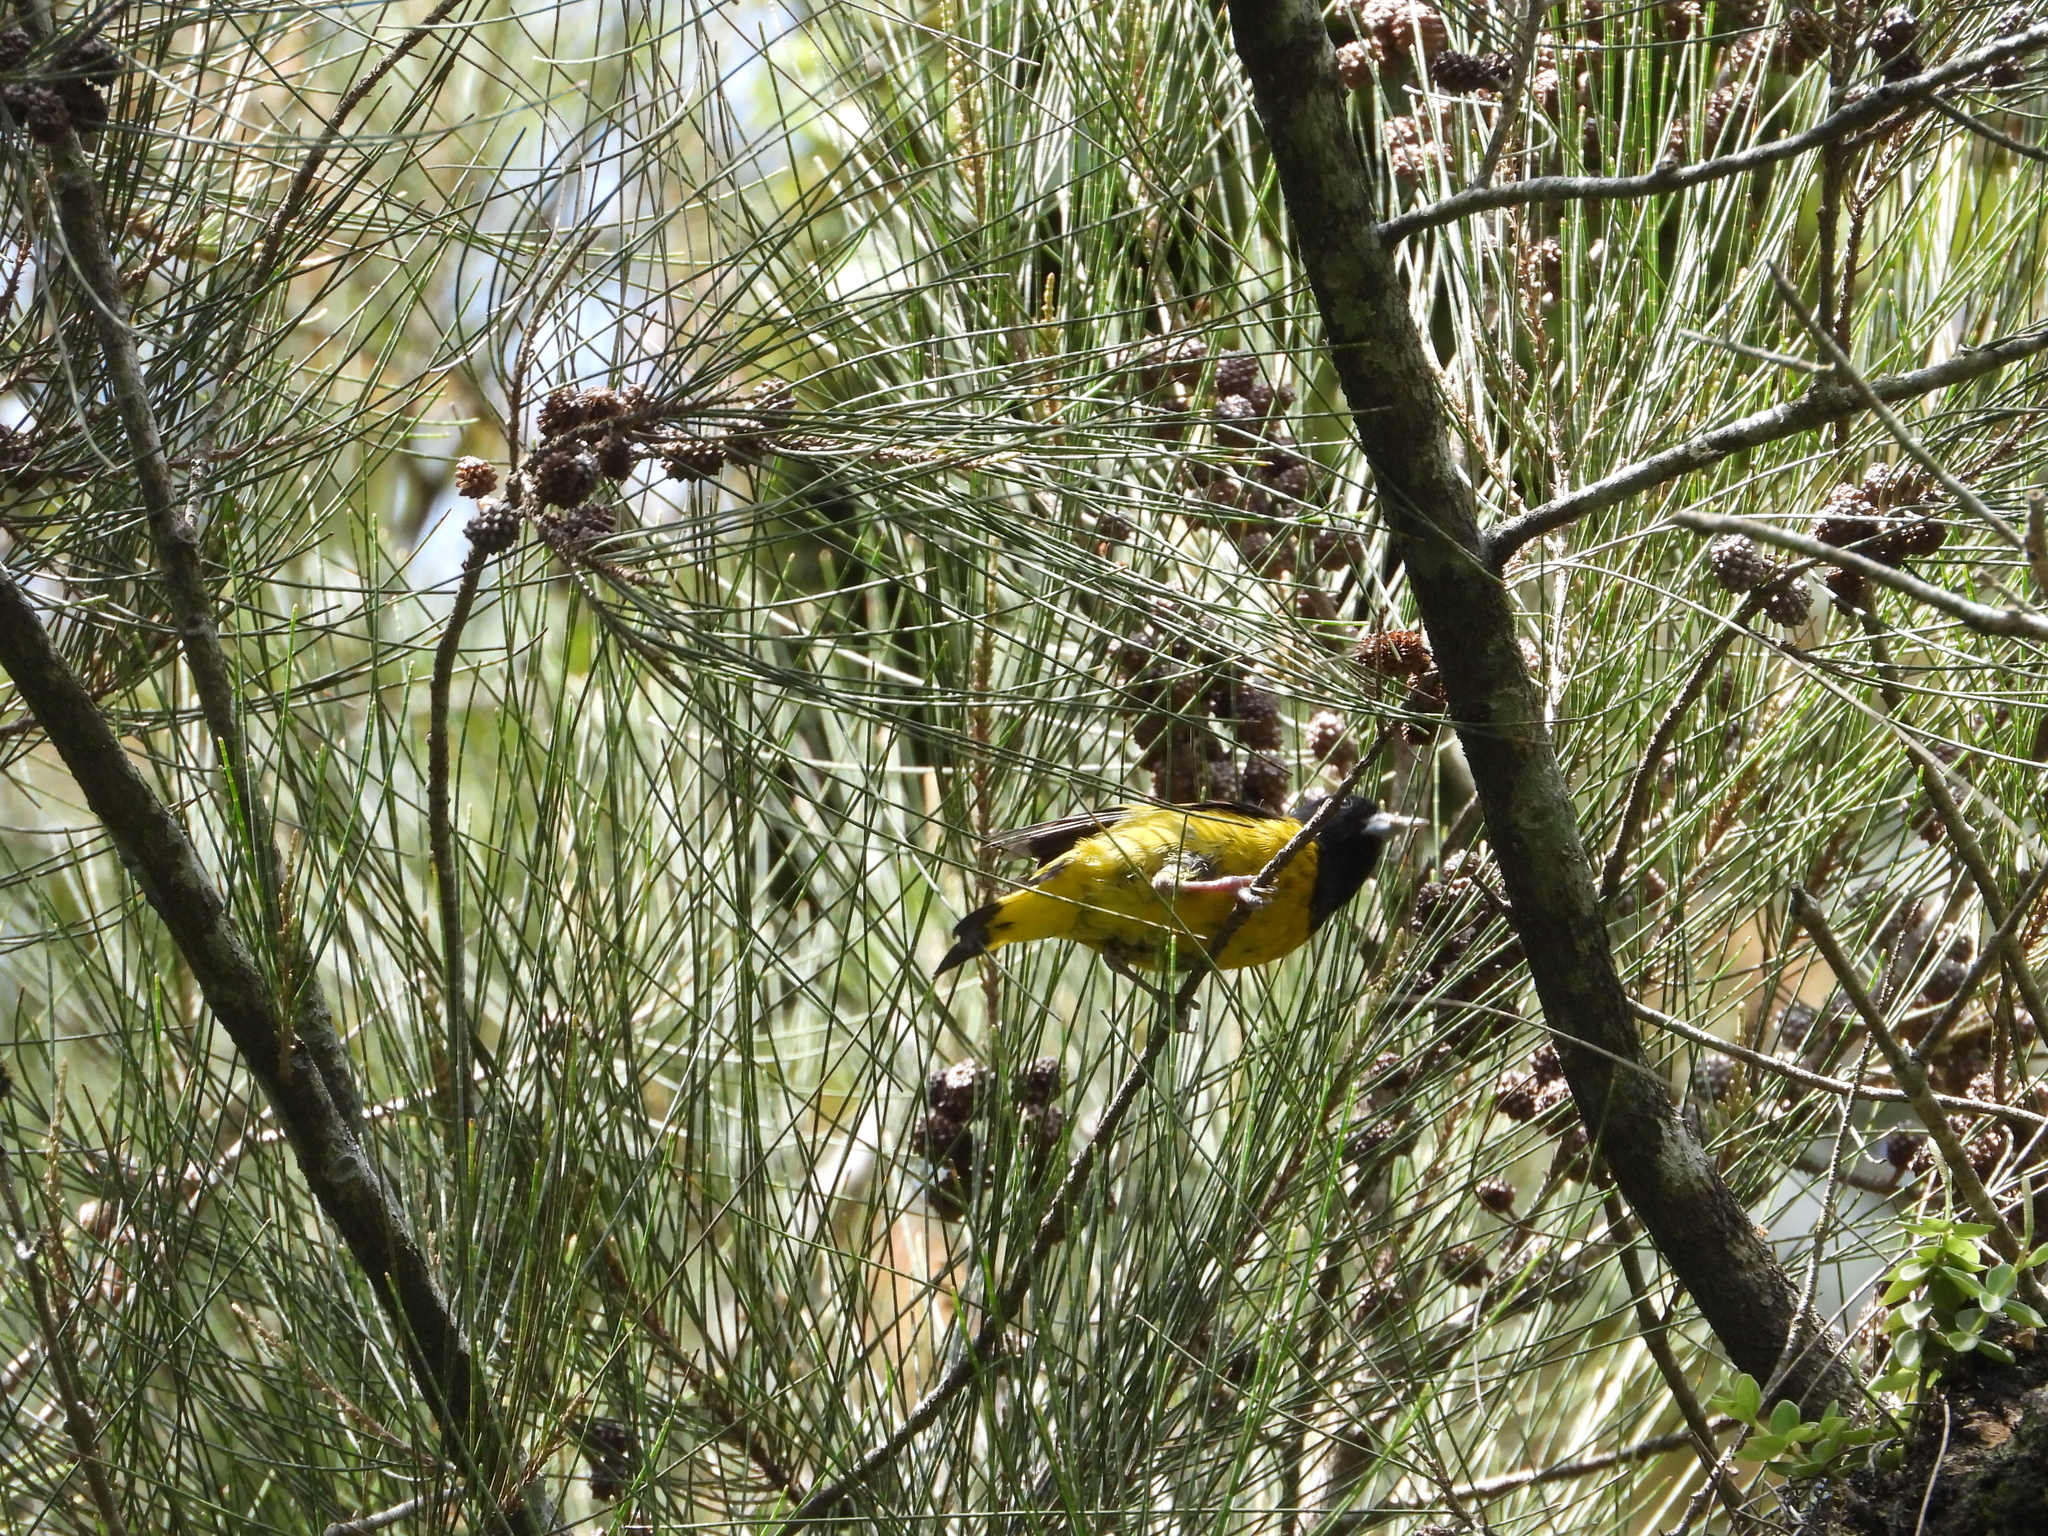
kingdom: Animalia
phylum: Chordata
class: Aves
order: Passeriformes
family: Fringillidae
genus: Spinus
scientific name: Spinus notatus
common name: Black-headed siskin
